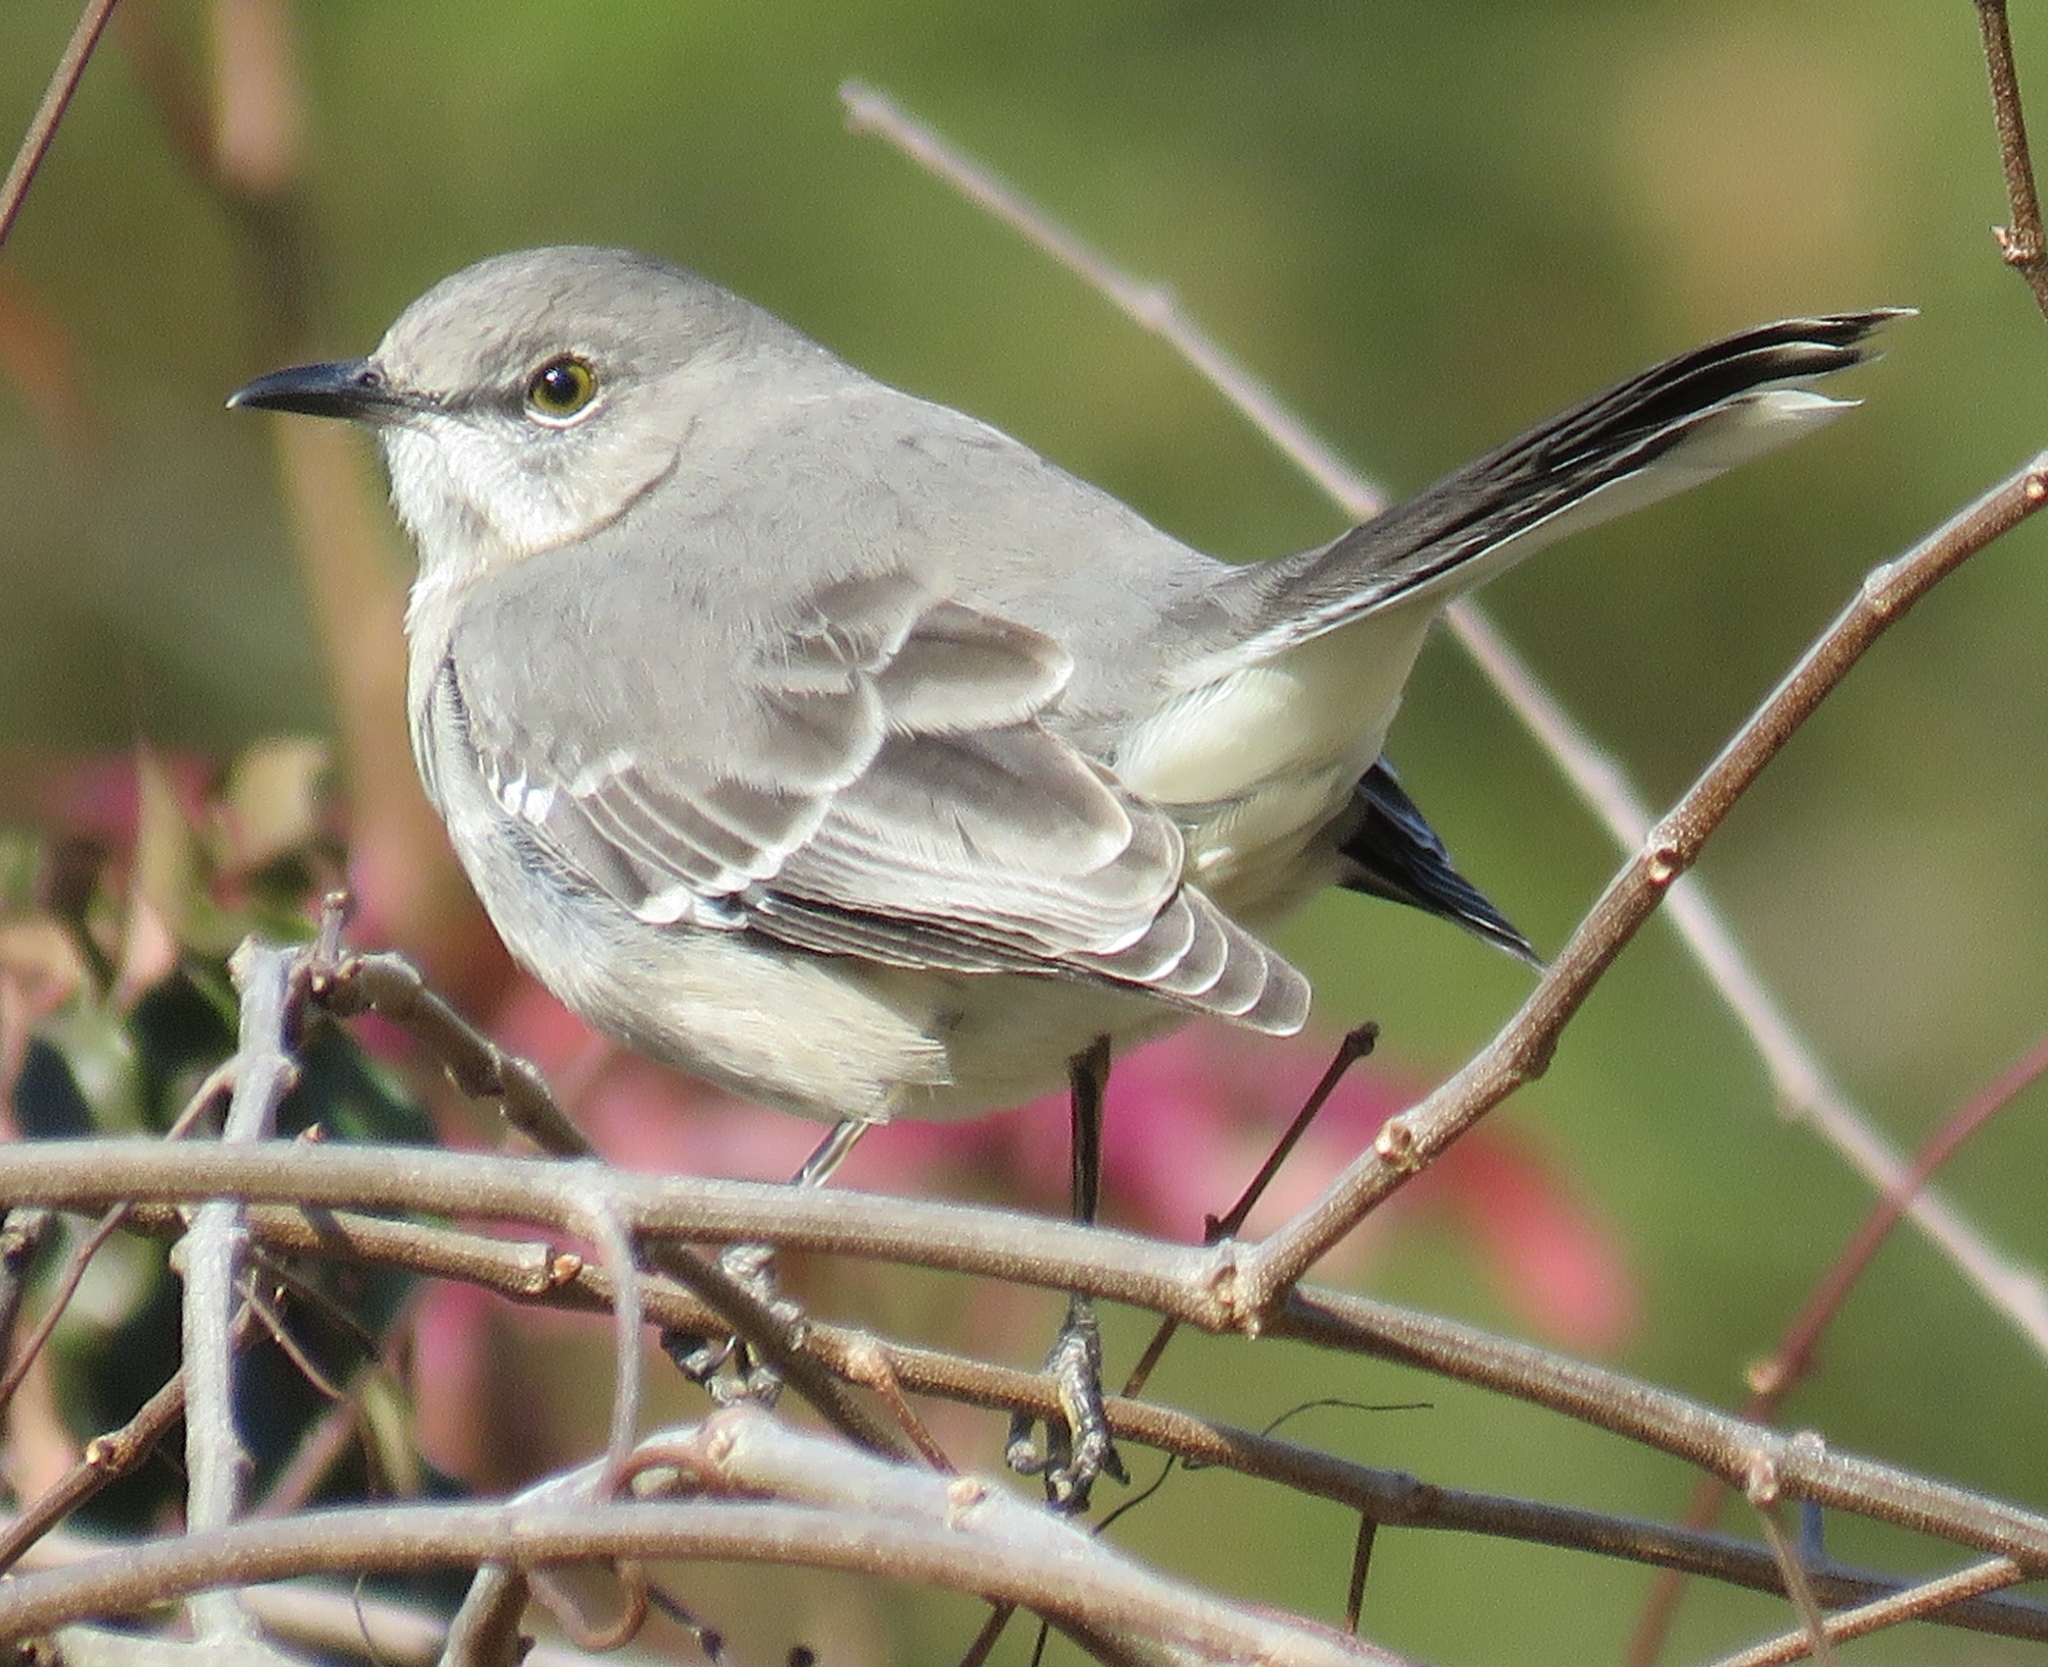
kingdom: Animalia
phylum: Chordata
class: Aves
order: Passeriformes
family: Mimidae
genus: Mimus
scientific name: Mimus polyglottos
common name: Northern mockingbird
